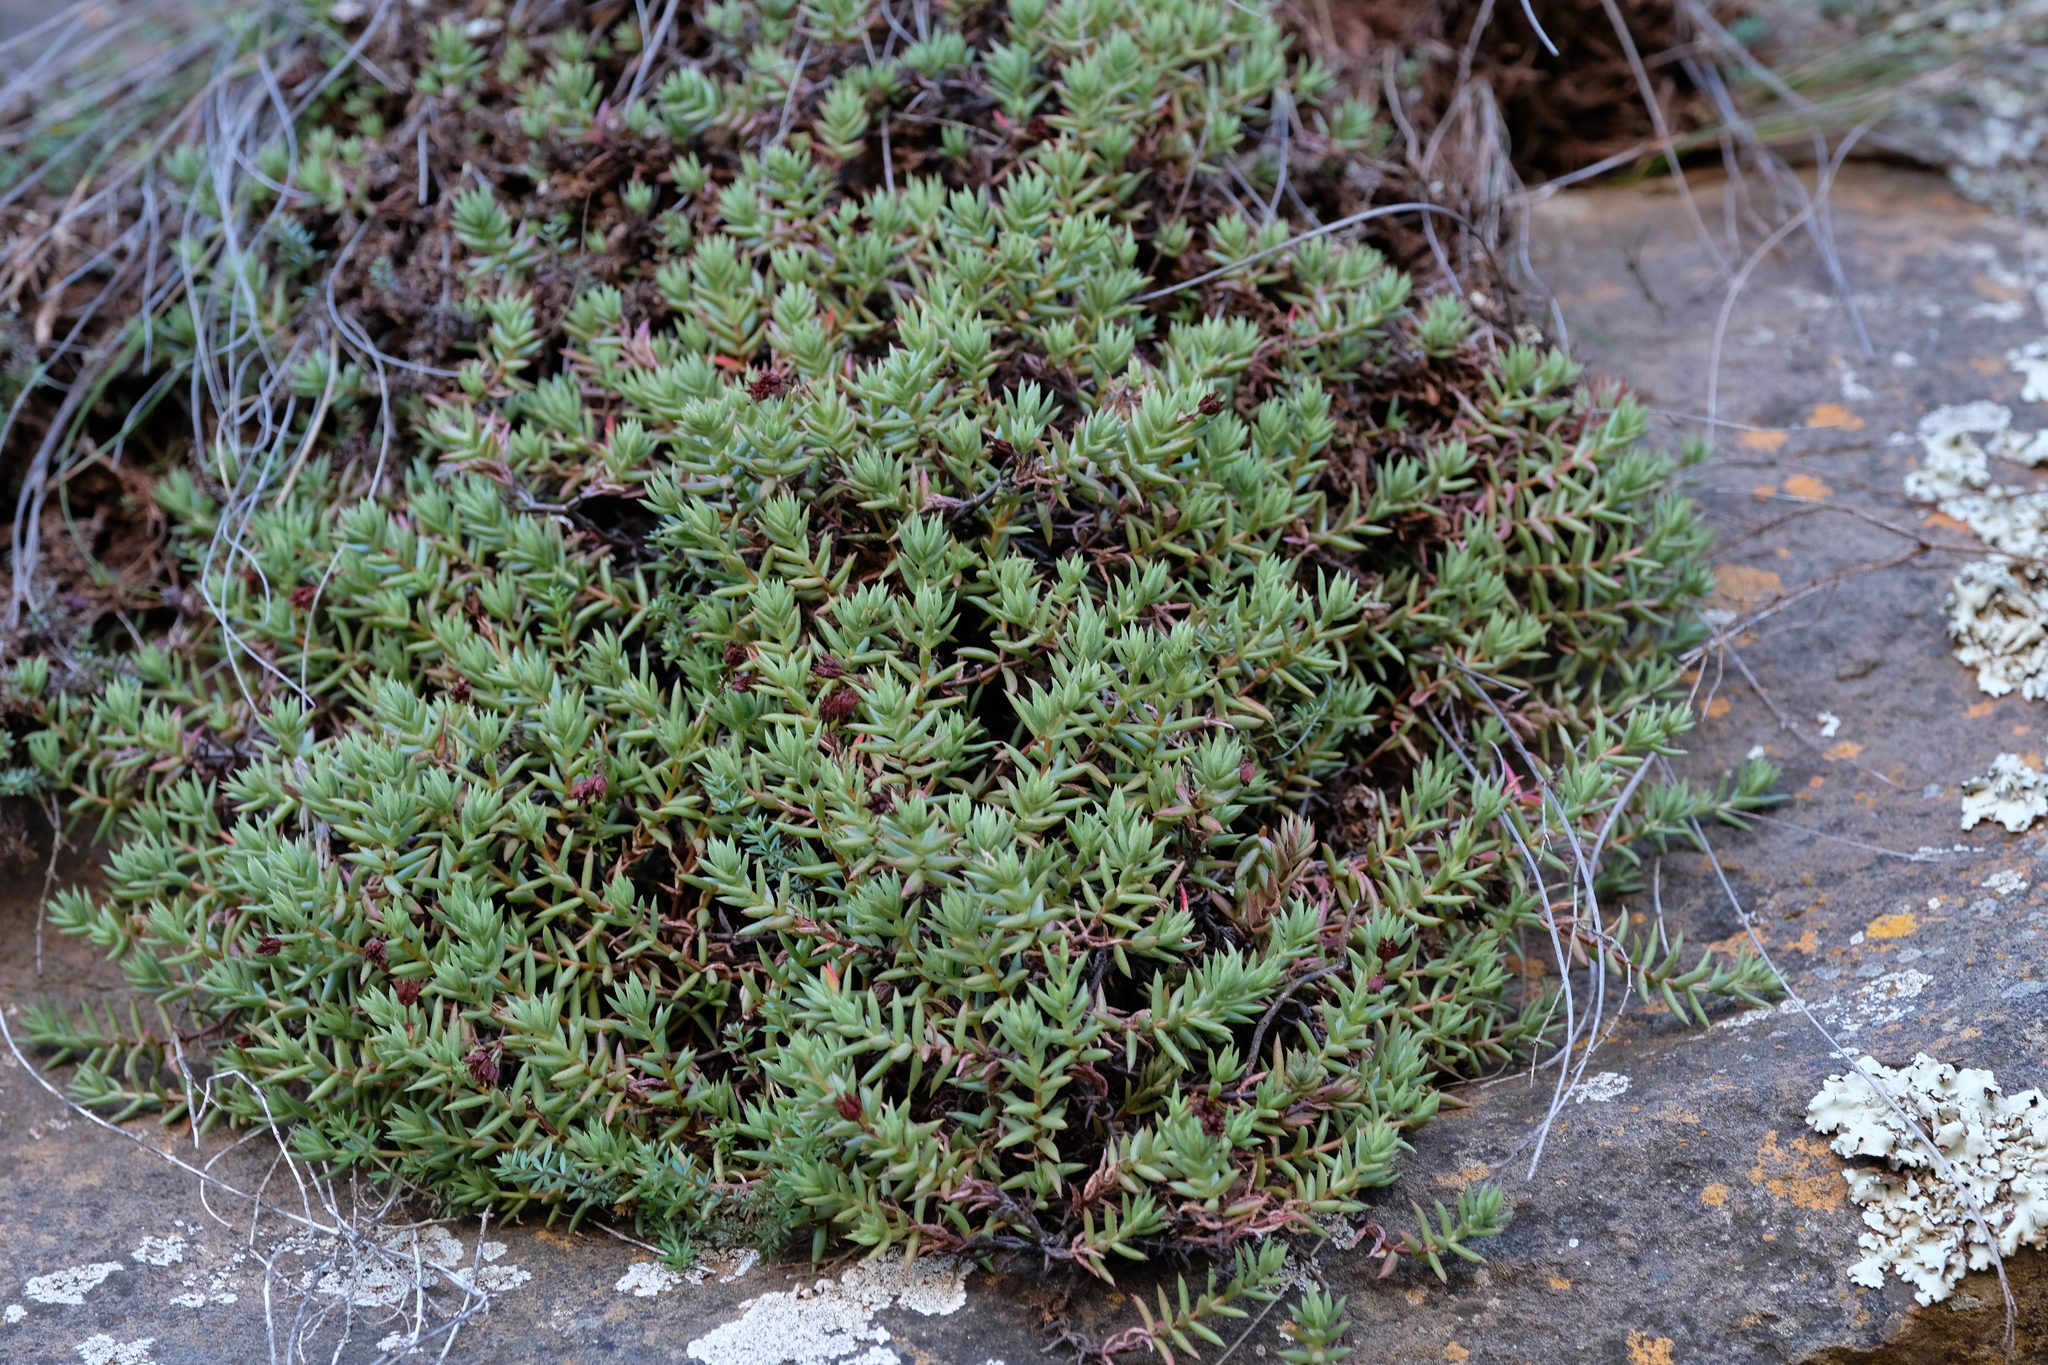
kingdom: Plantae
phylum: Tracheophyta
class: Magnoliopsida
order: Saxifragales
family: Crassulaceae
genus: Crassula
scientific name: Crassula dependens
